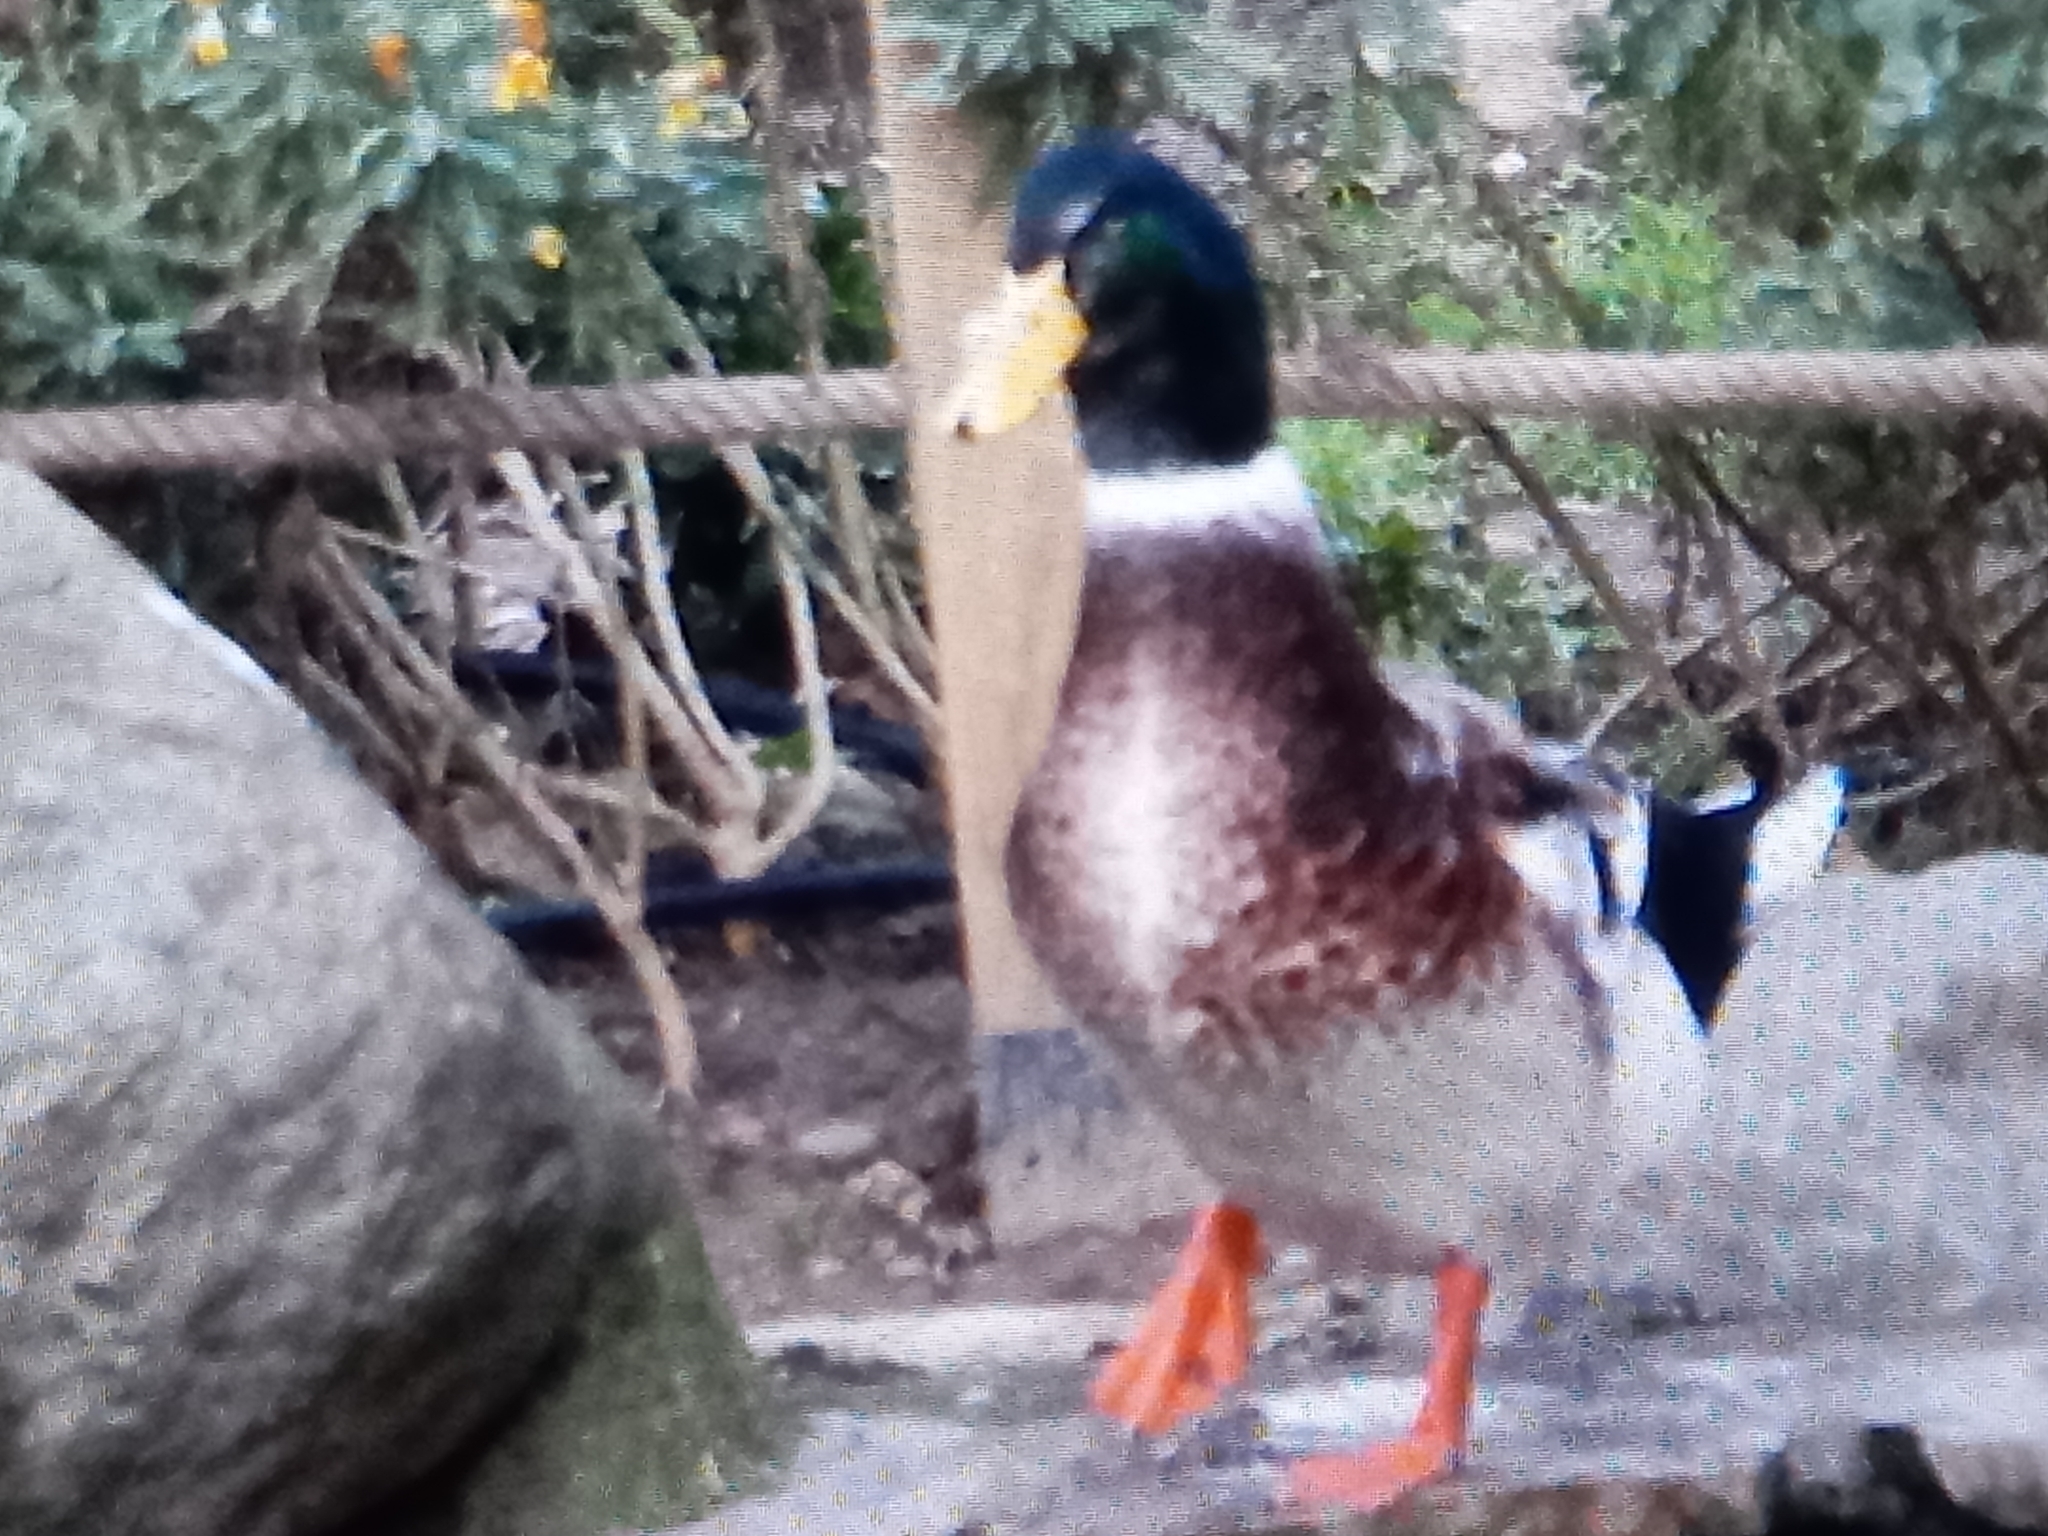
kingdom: Animalia
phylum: Chordata
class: Aves
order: Anseriformes
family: Anatidae
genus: Anas
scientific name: Anas platyrhynchos
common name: Mallard
